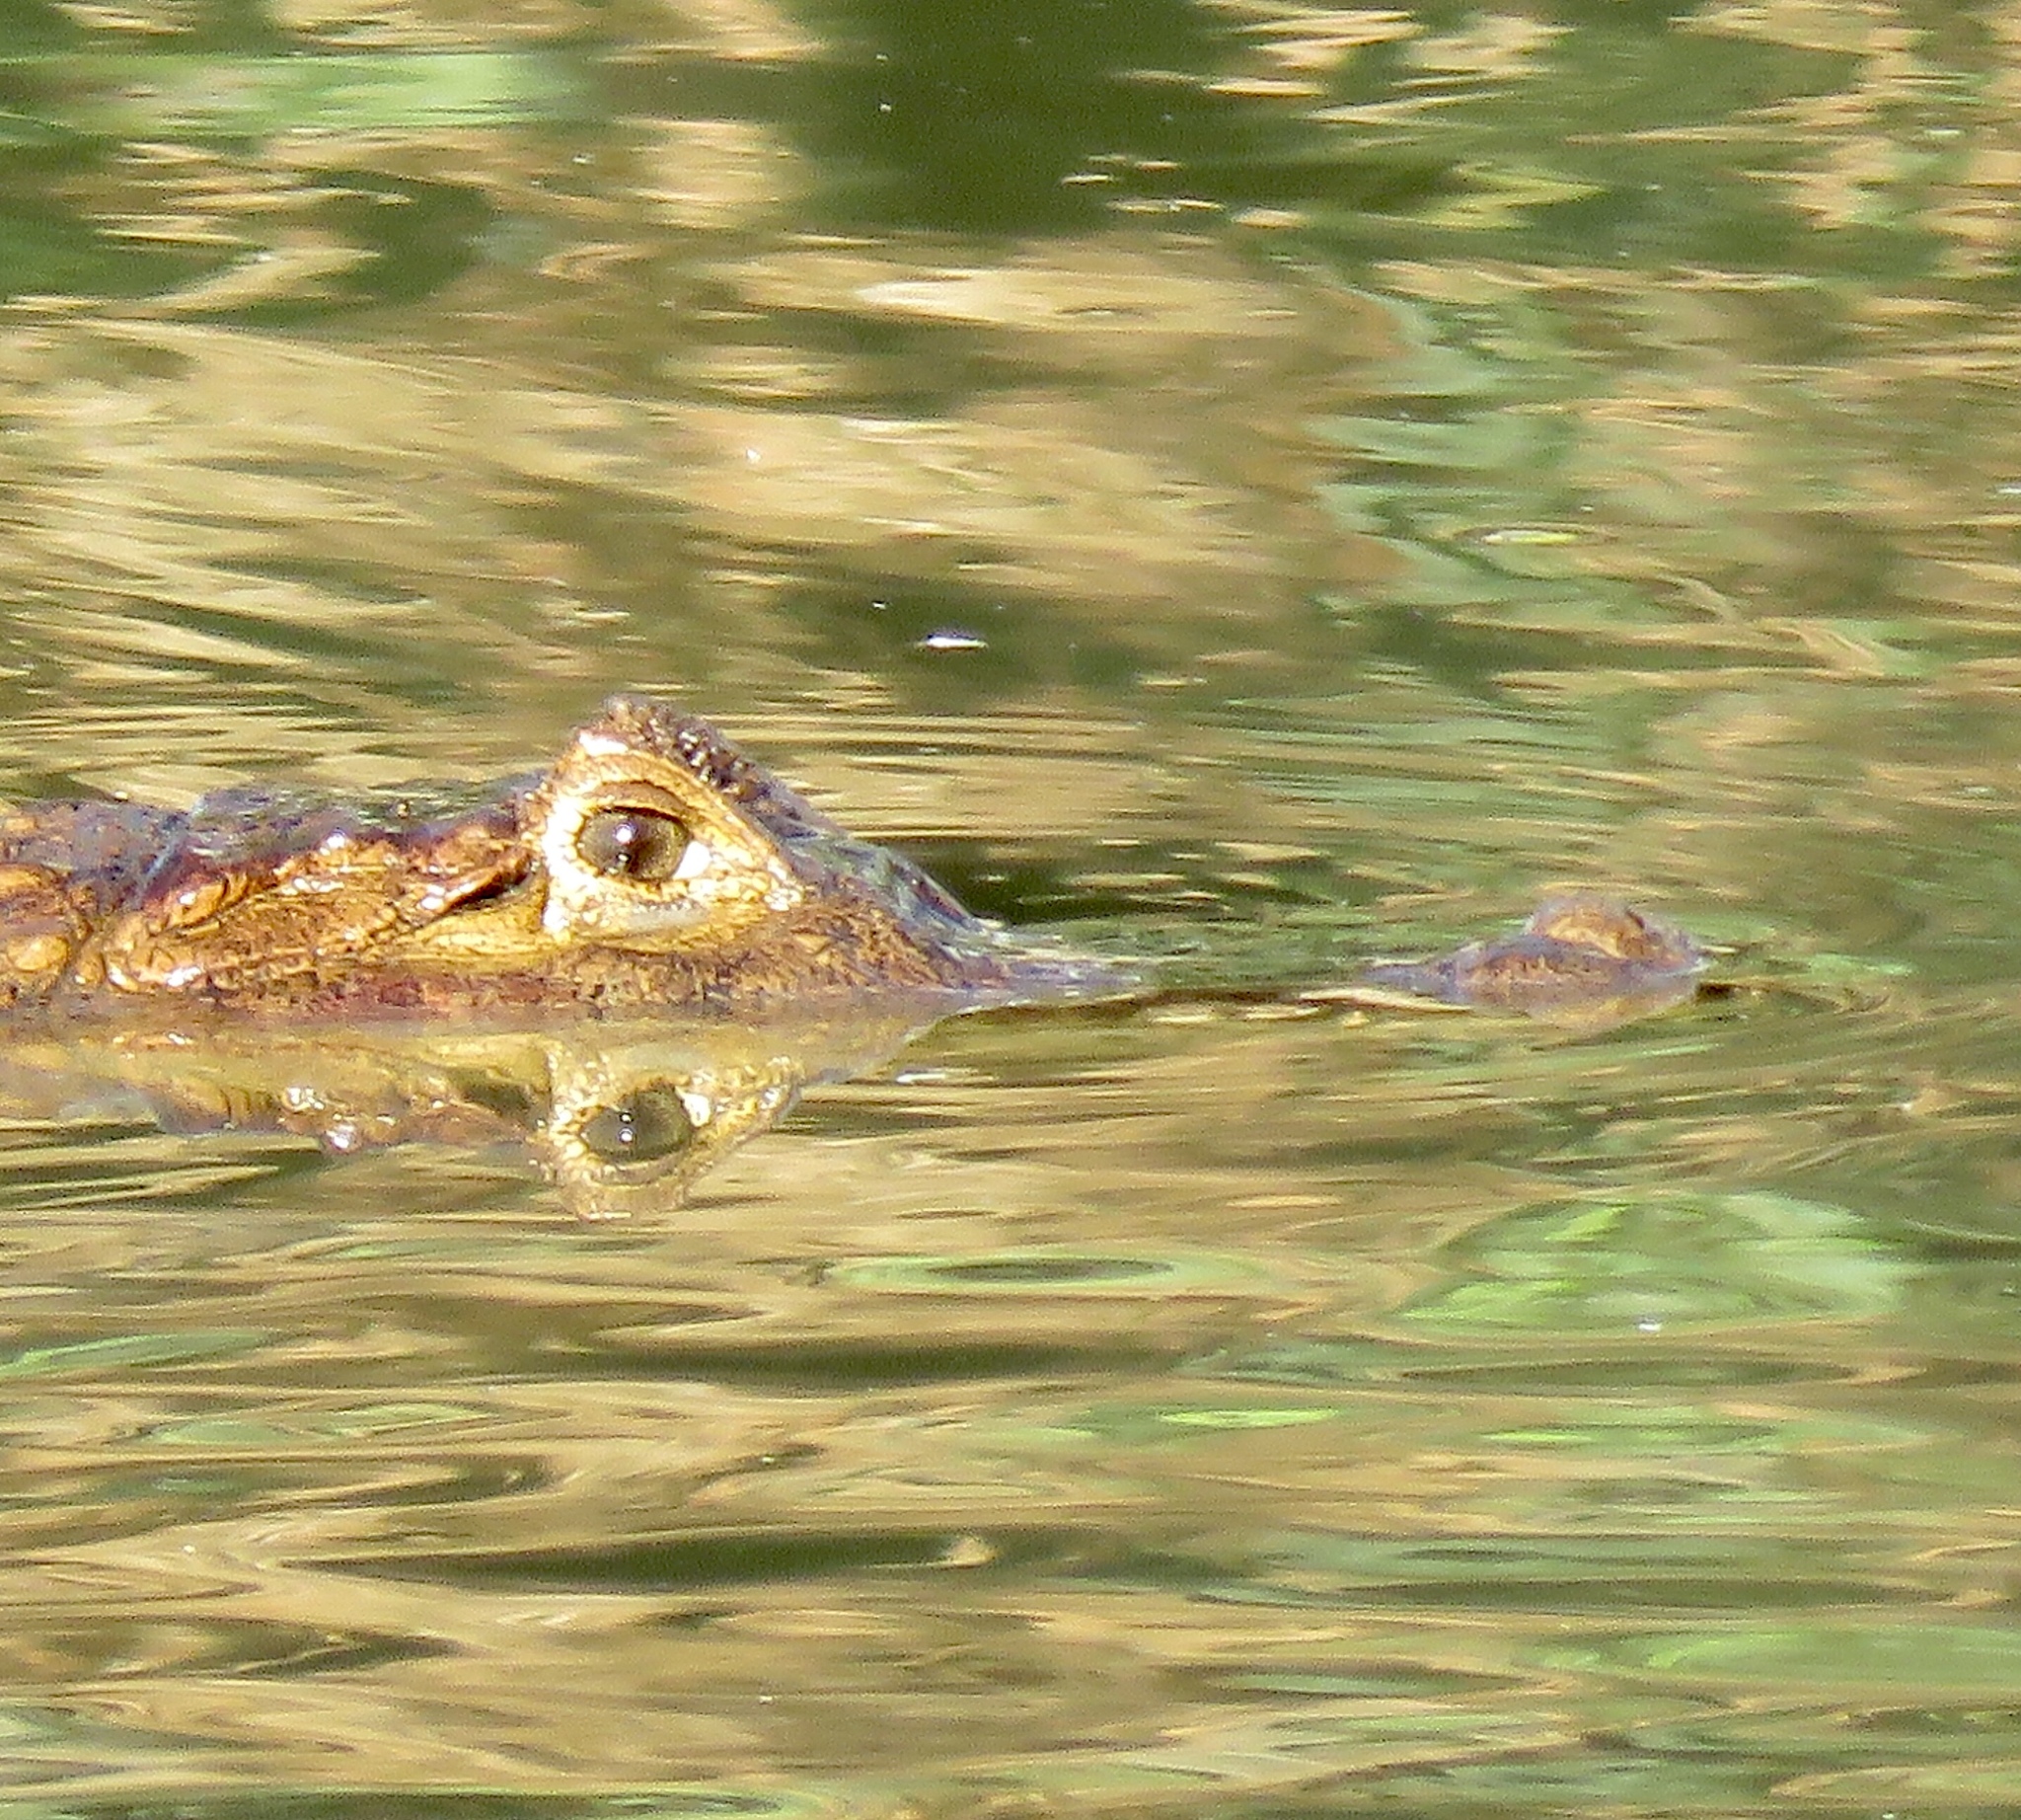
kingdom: Animalia
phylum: Chordata
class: Crocodylia
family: Alligatoridae
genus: Caiman
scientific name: Caiman crocodilus
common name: Common caiman
